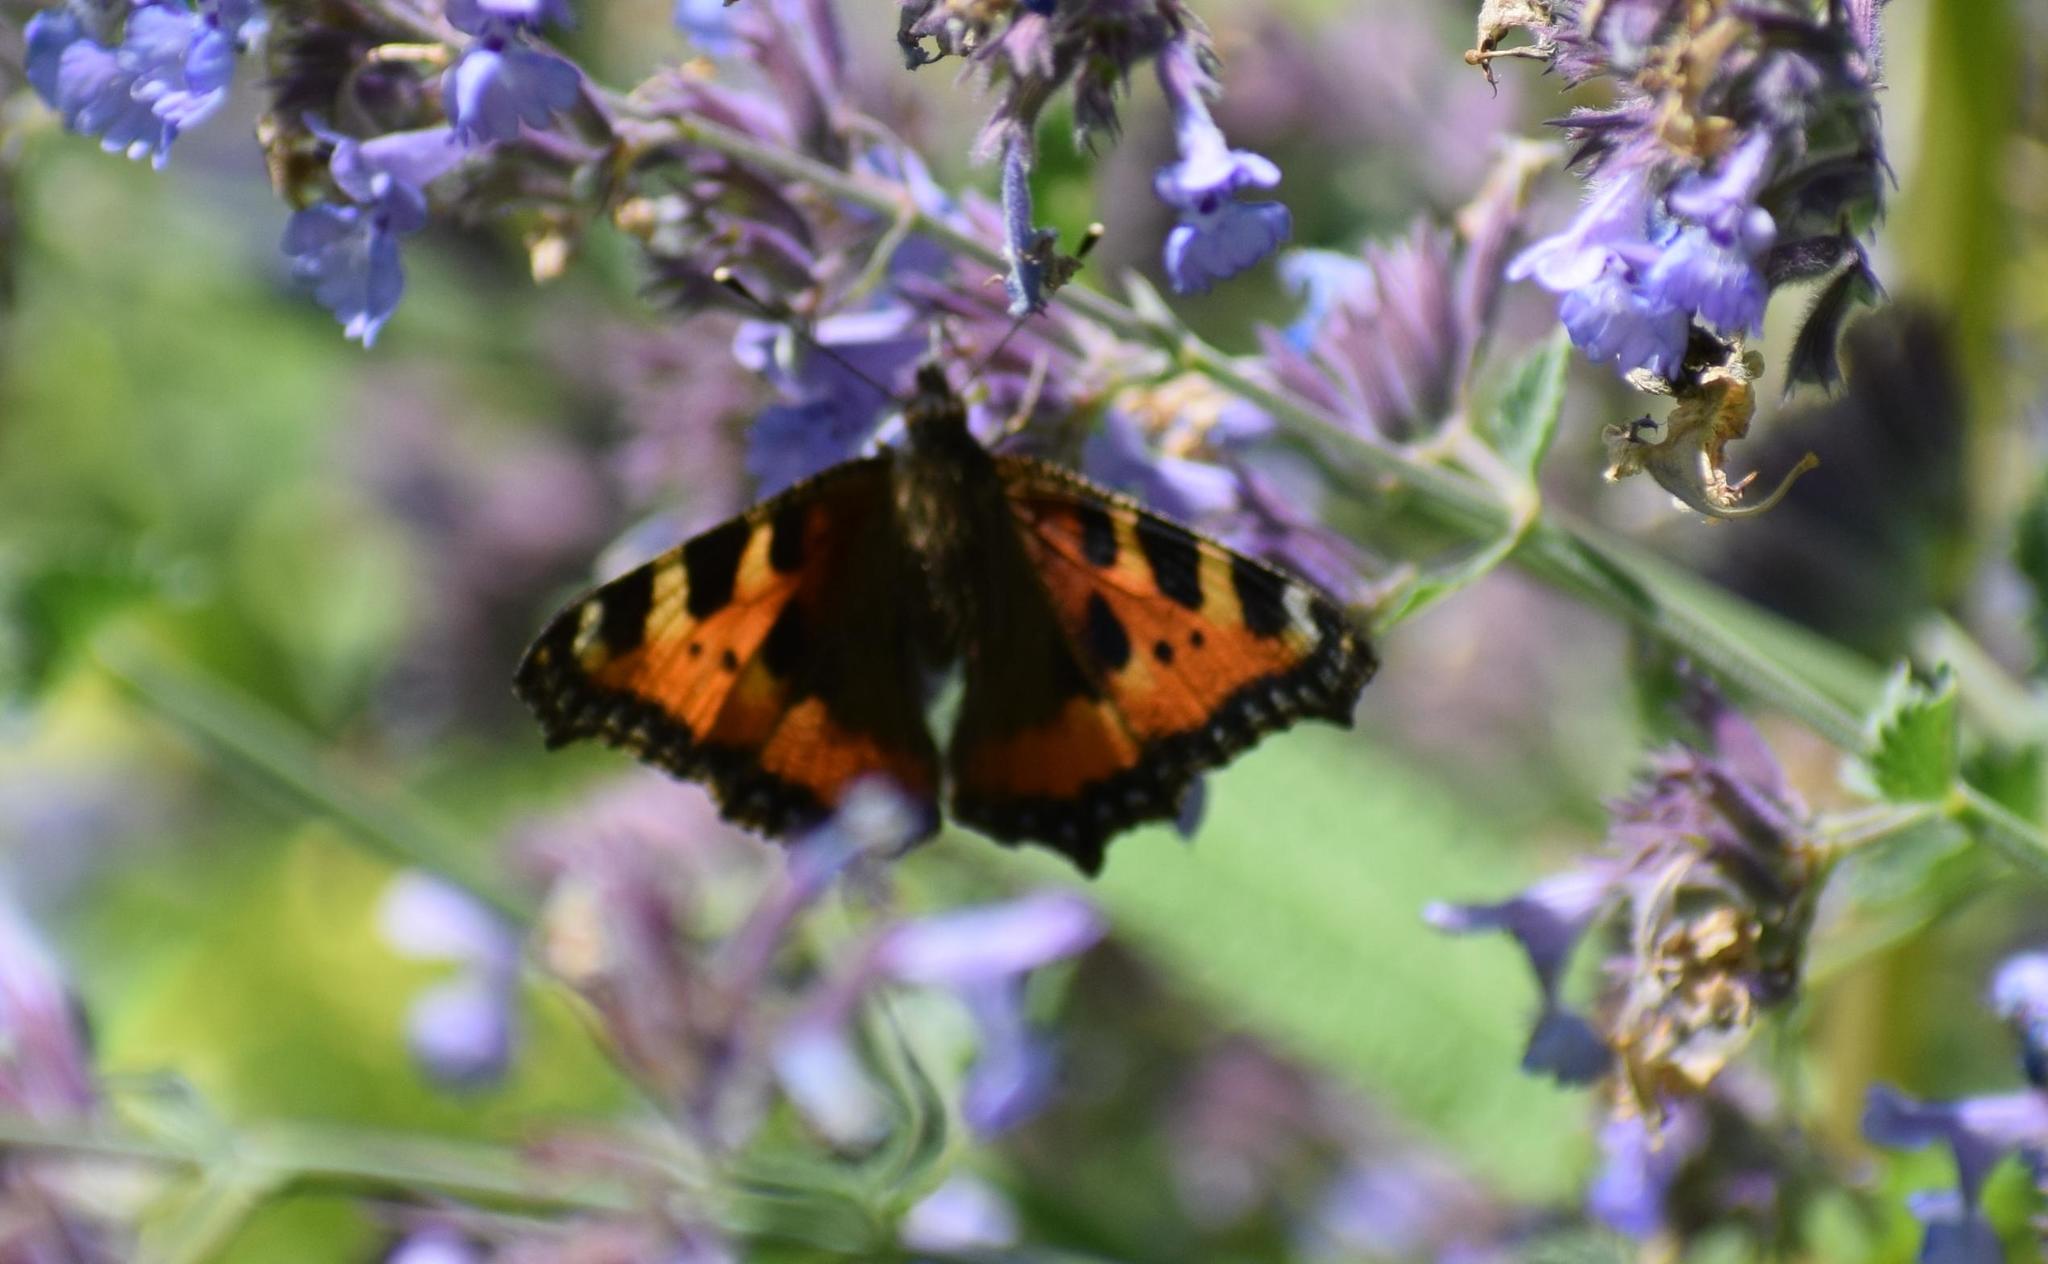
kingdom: Animalia
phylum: Arthropoda
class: Insecta
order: Lepidoptera
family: Nymphalidae
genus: Aglais
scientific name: Aglais urticae
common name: Small tortoiseshell
